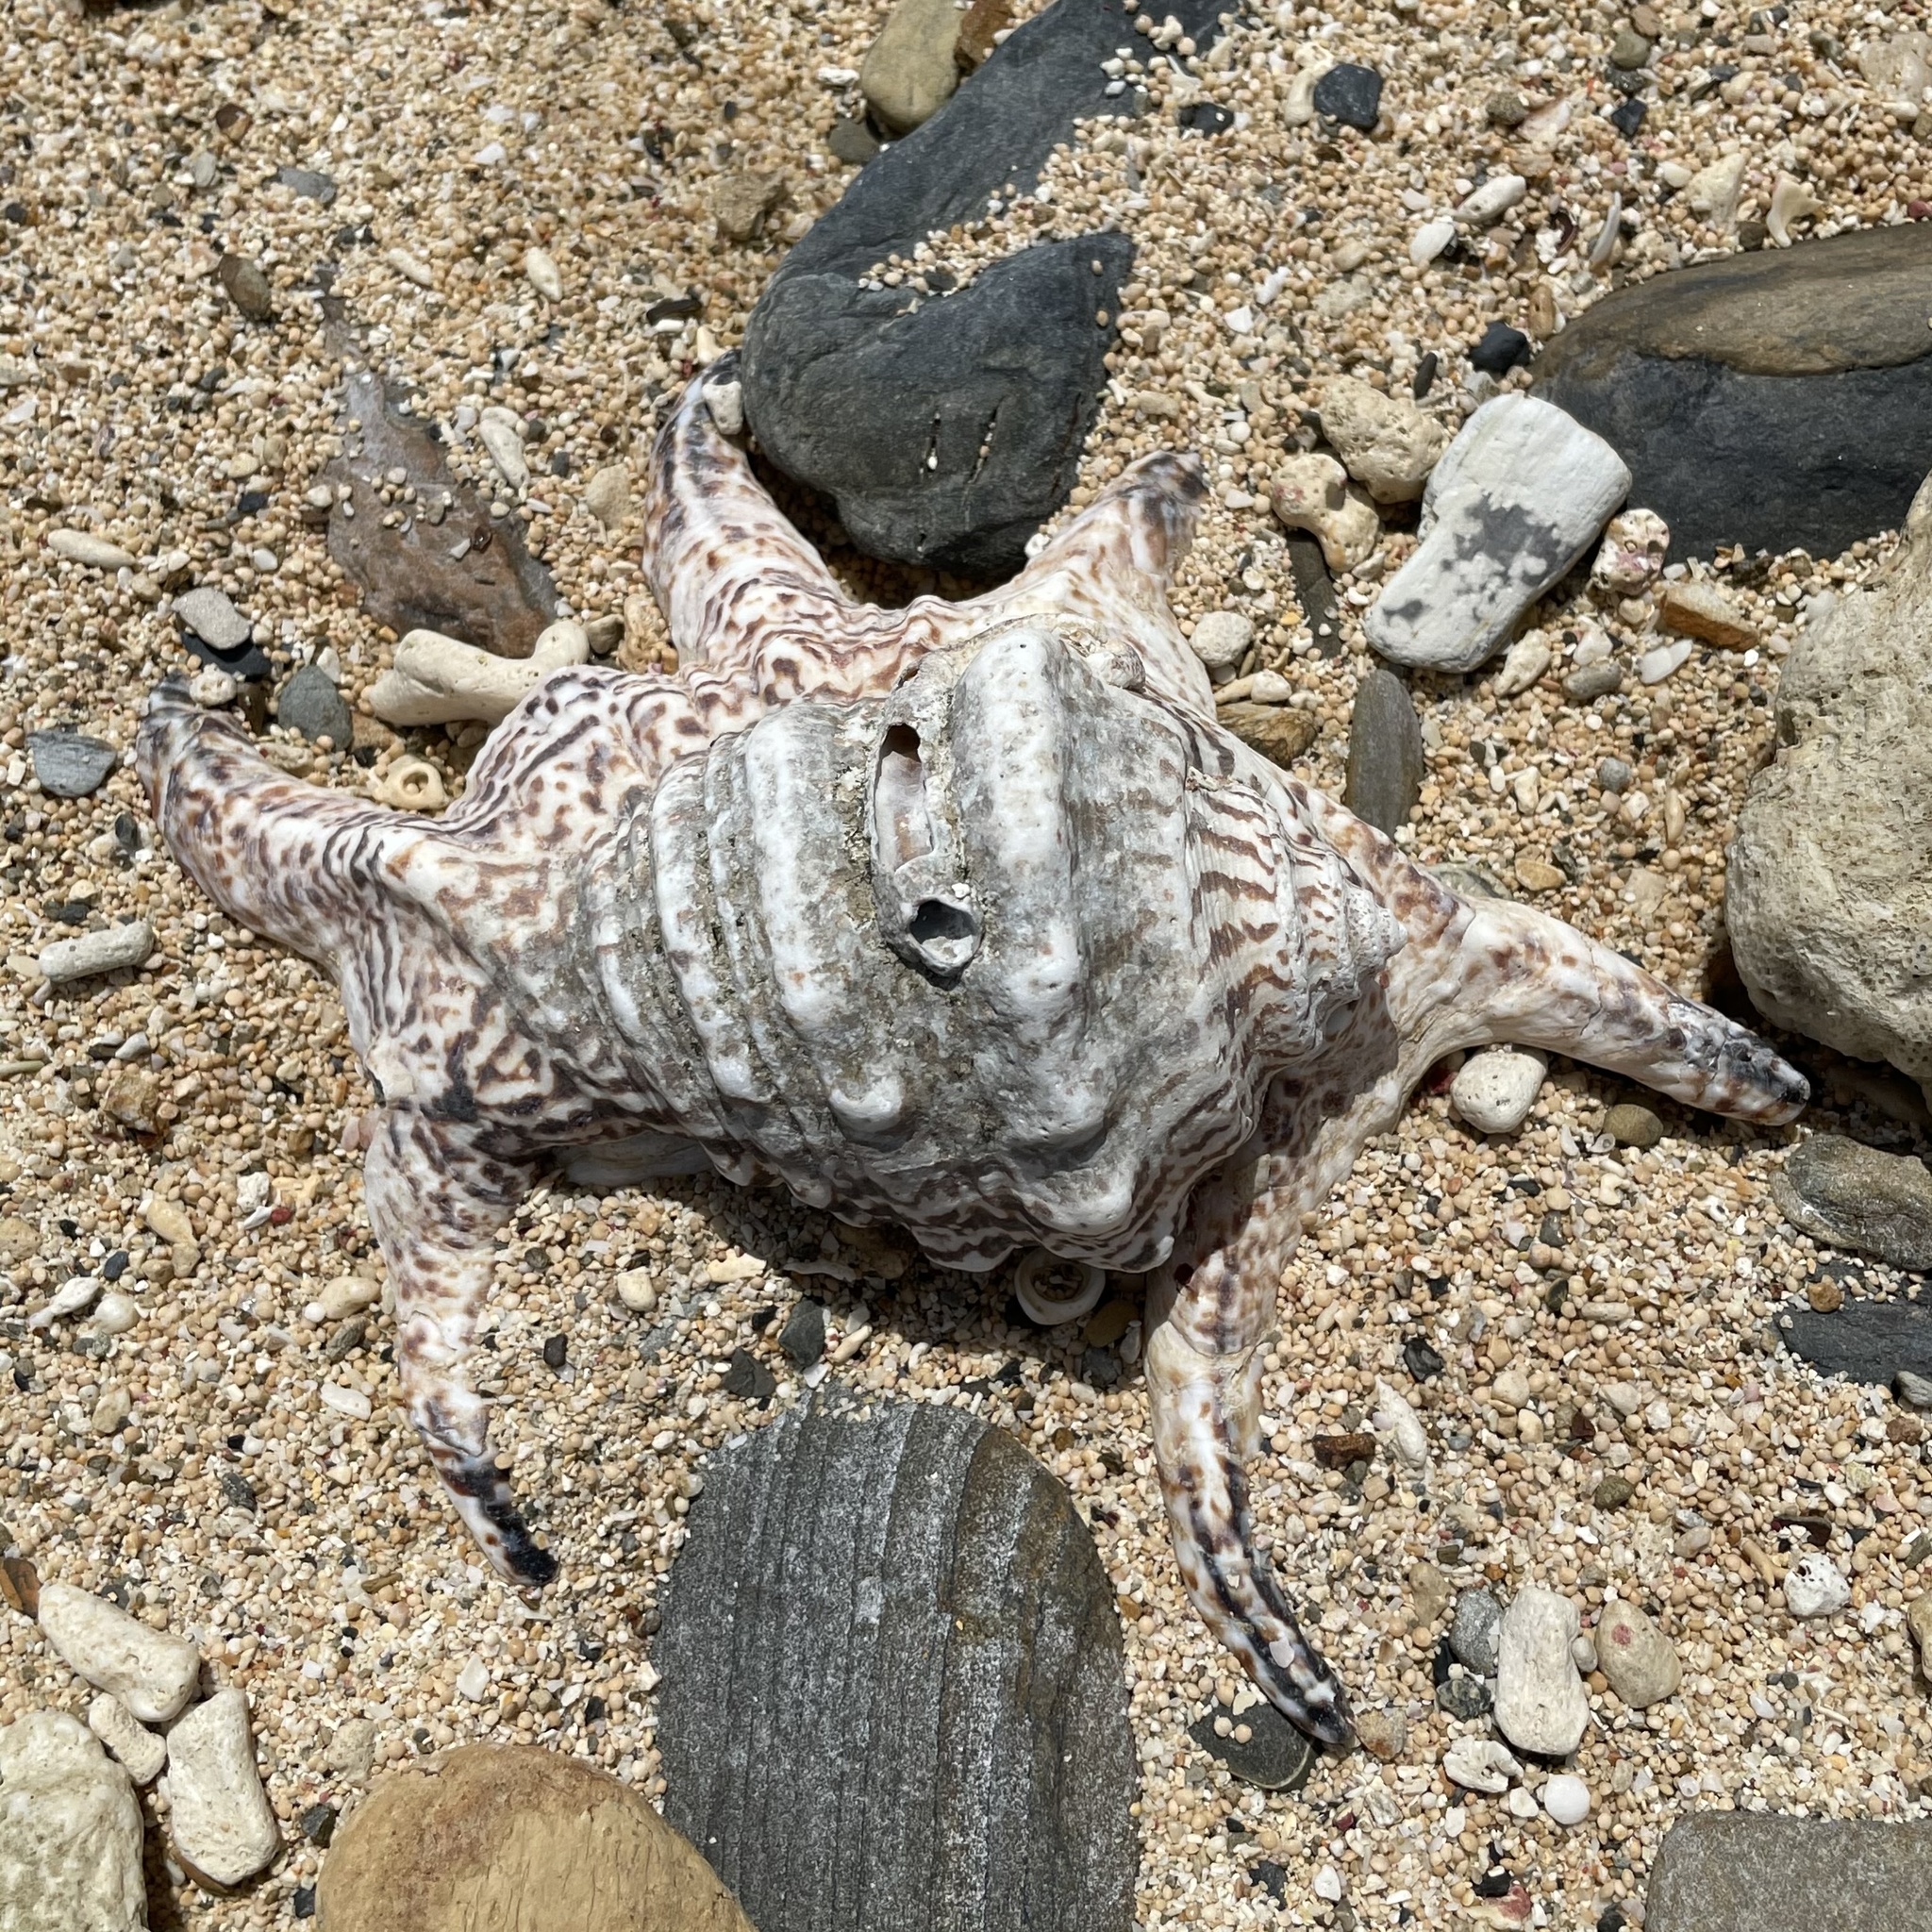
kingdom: Animalia
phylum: Mollusca
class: Gastropoda
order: Littorinimorpha
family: Strombidae
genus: Harpago
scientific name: Harpago chiragra
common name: Chiragra spider conch
